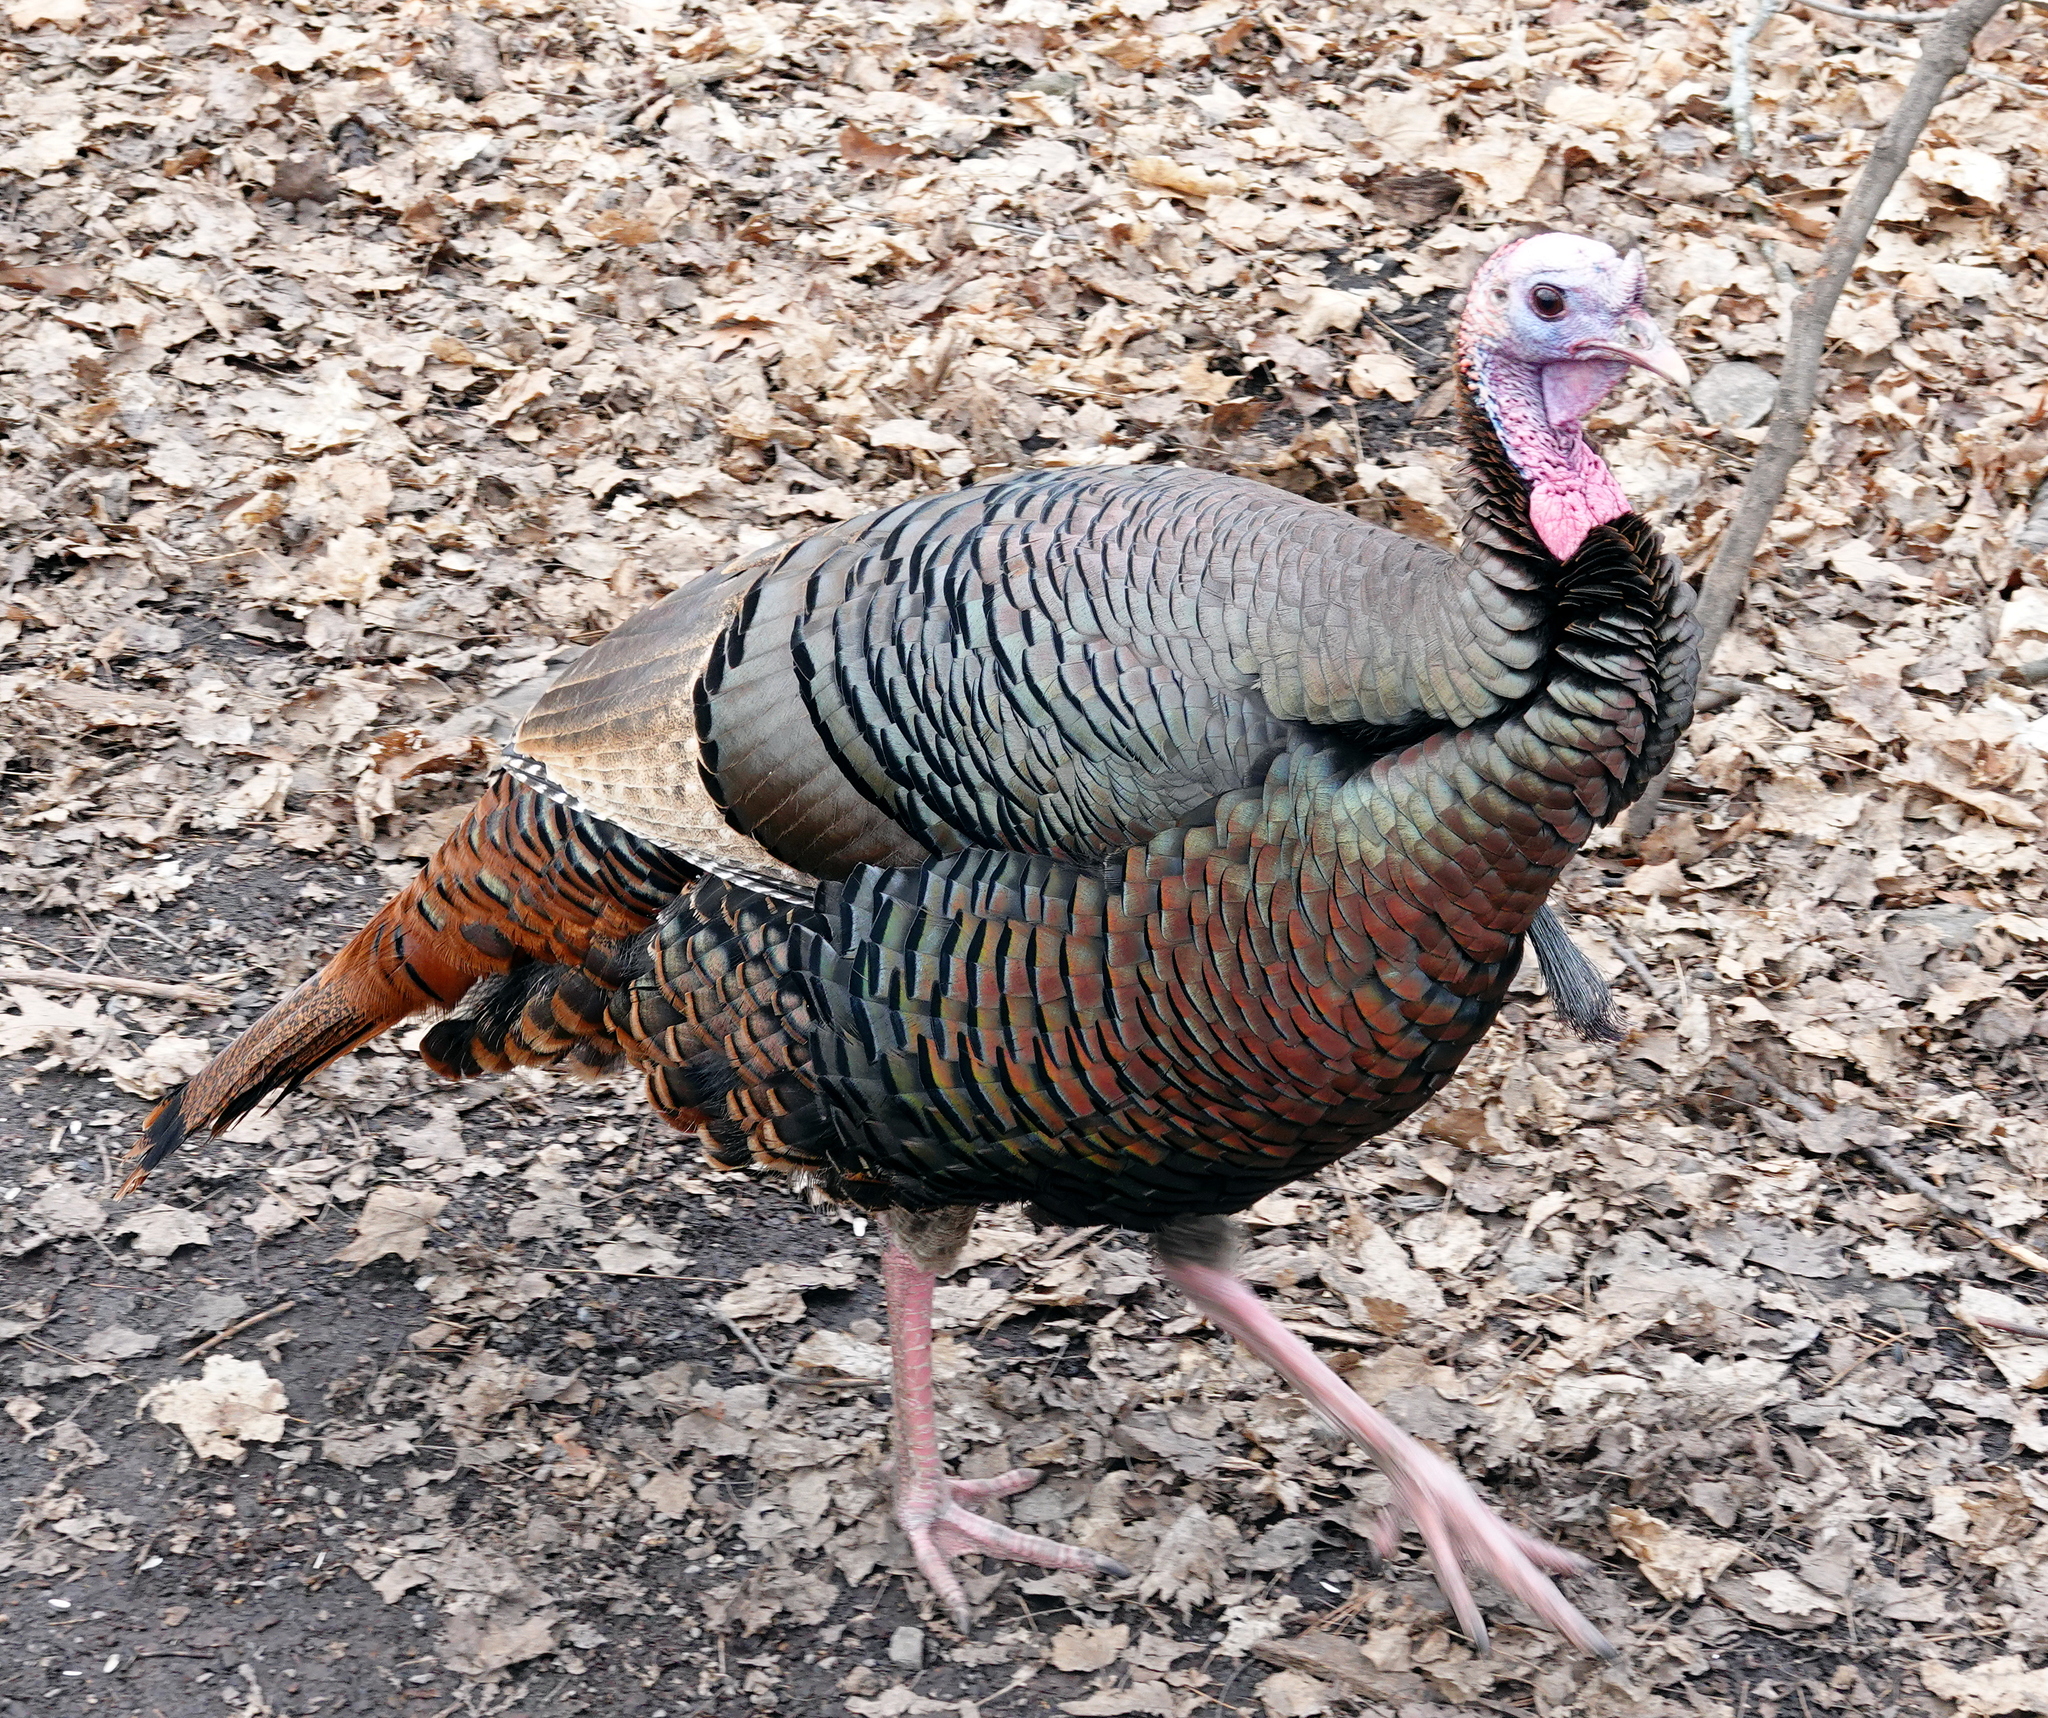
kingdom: Animalia
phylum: Chordata
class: Aves
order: Galliformes
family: Phasianidae
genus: Meleagris
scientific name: Meleagris gallopavo
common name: Wild turkey
